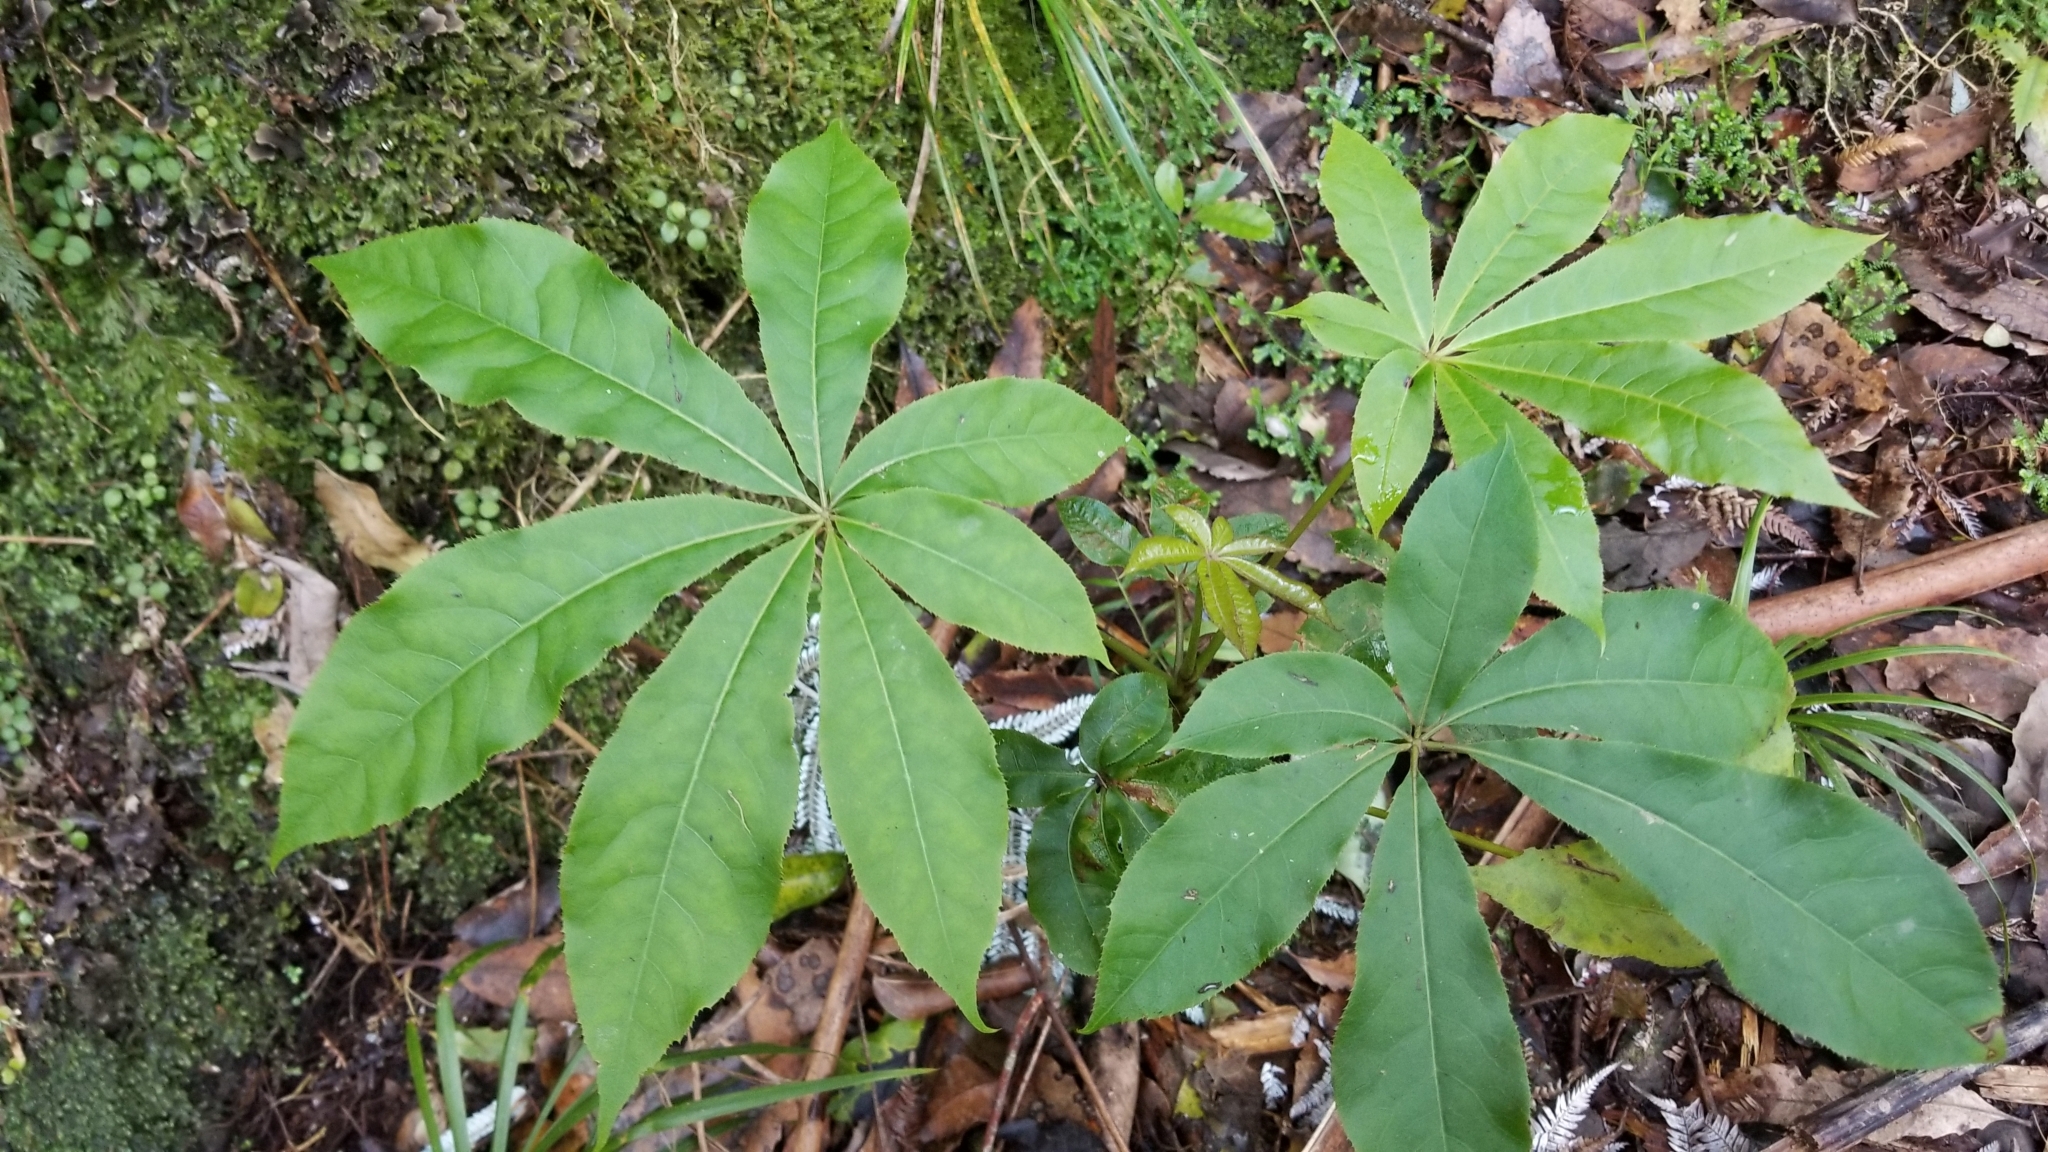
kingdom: Plantae
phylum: Tracheophyta
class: Magnoliopsida
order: Apiales
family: Araliaceae
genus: Schefflera
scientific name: Schefflera digitata
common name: Pate
